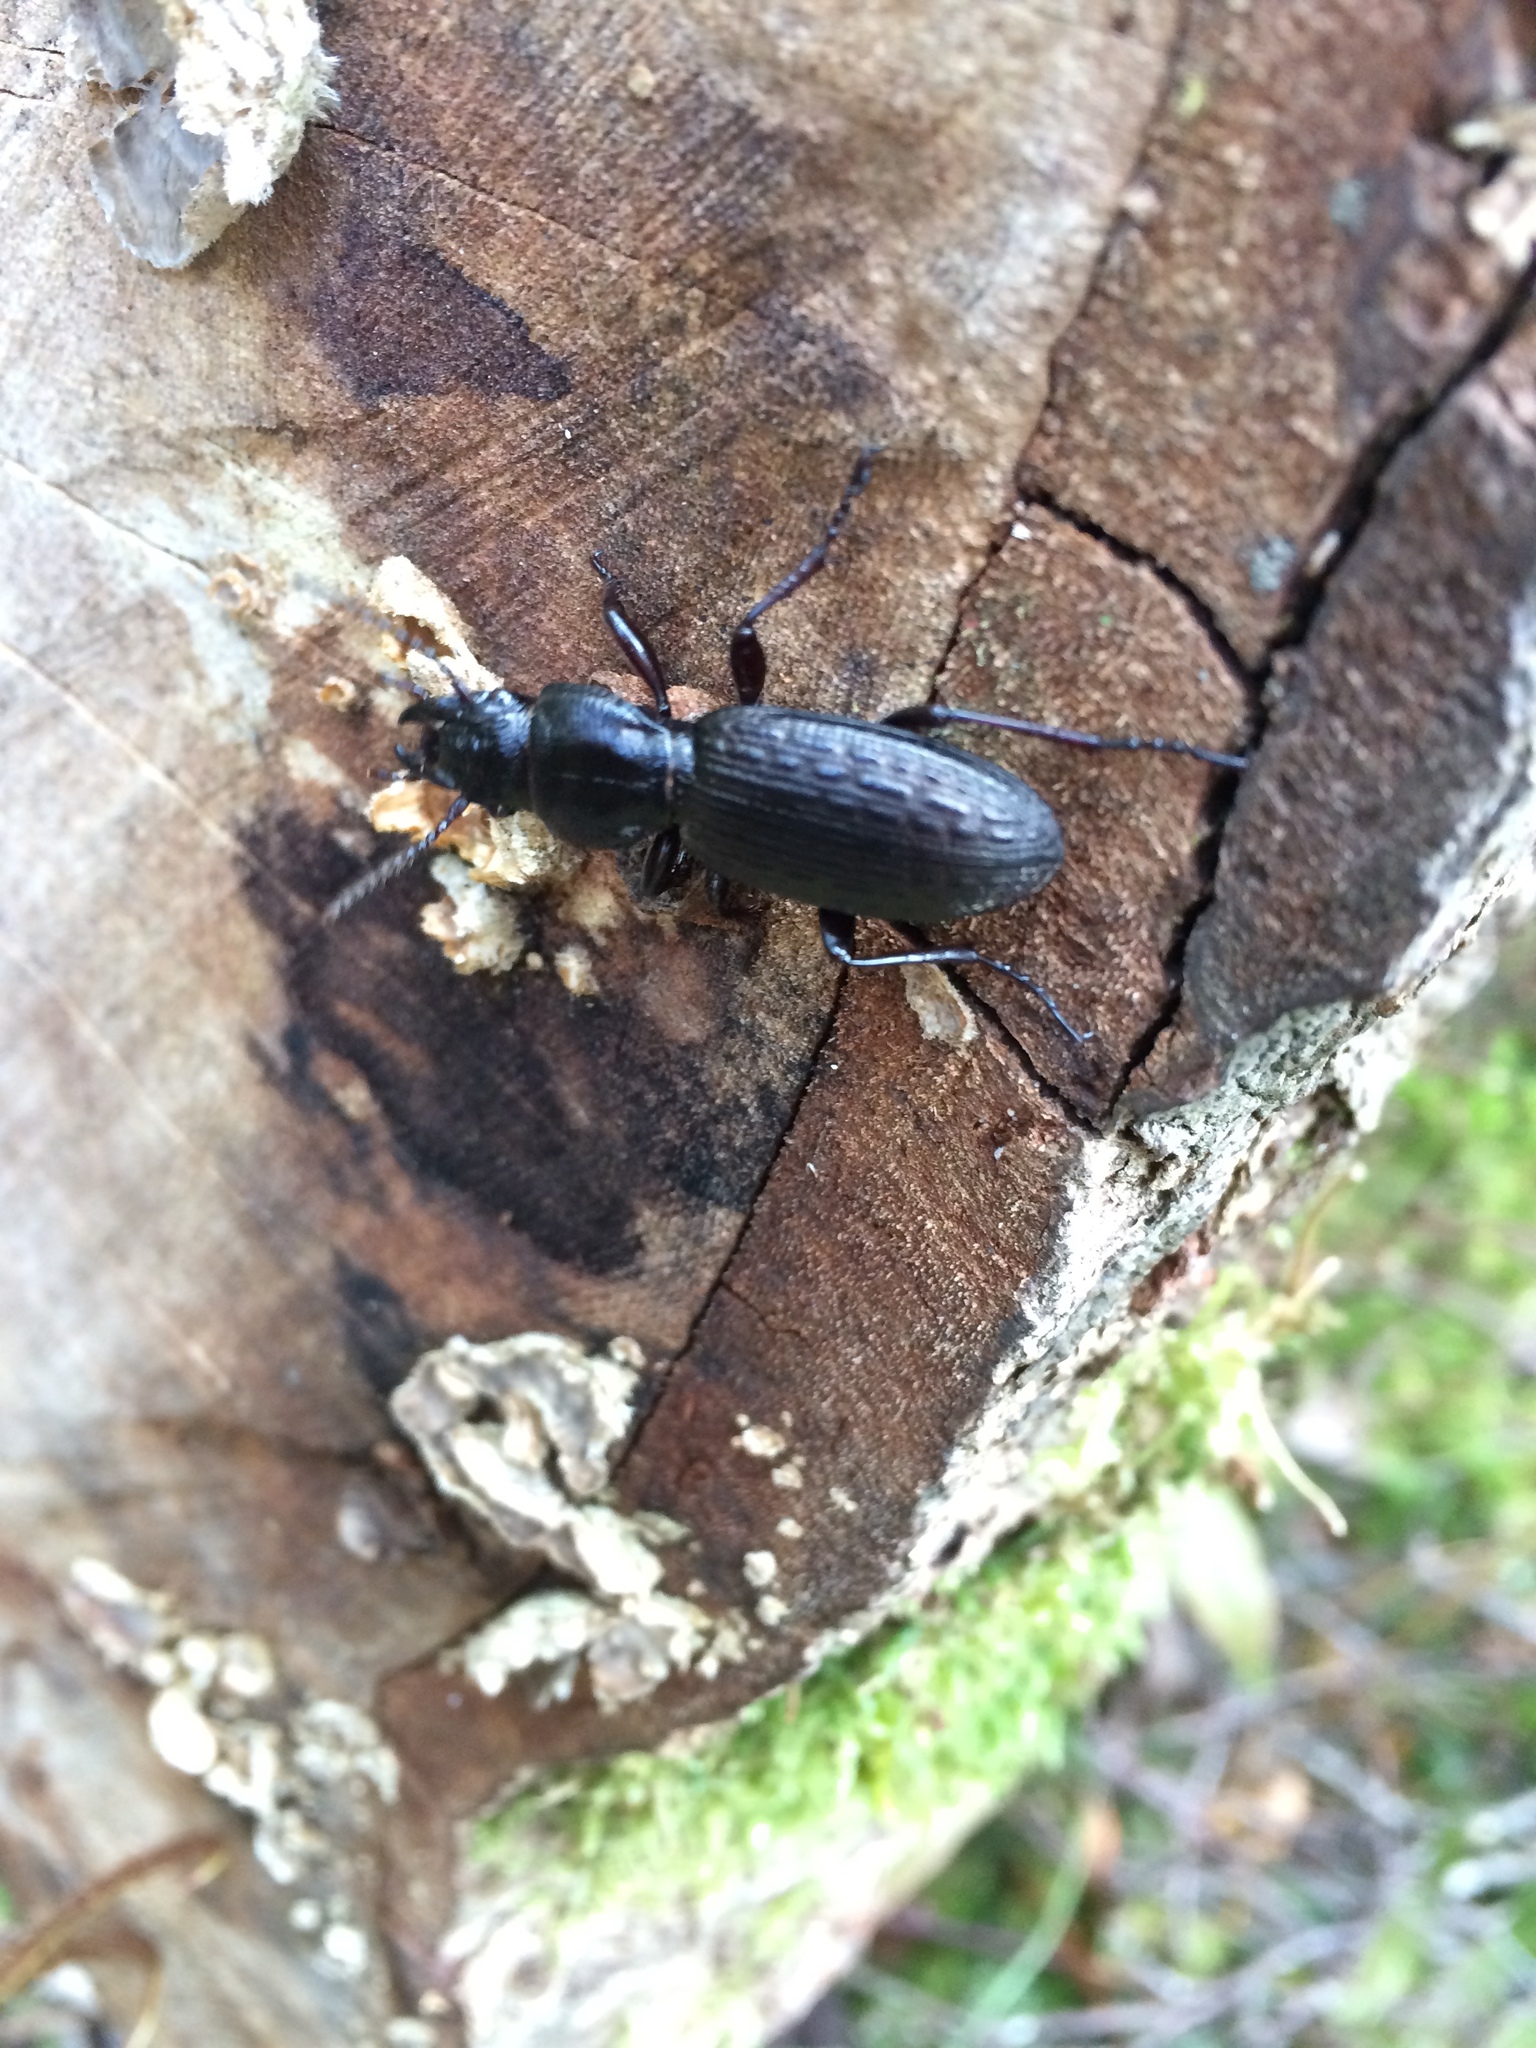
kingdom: Animalia
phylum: Arthropoda
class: Insecta
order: Coleoptera
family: Carabidae
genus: Mecodema
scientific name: Mecodema bullatum
